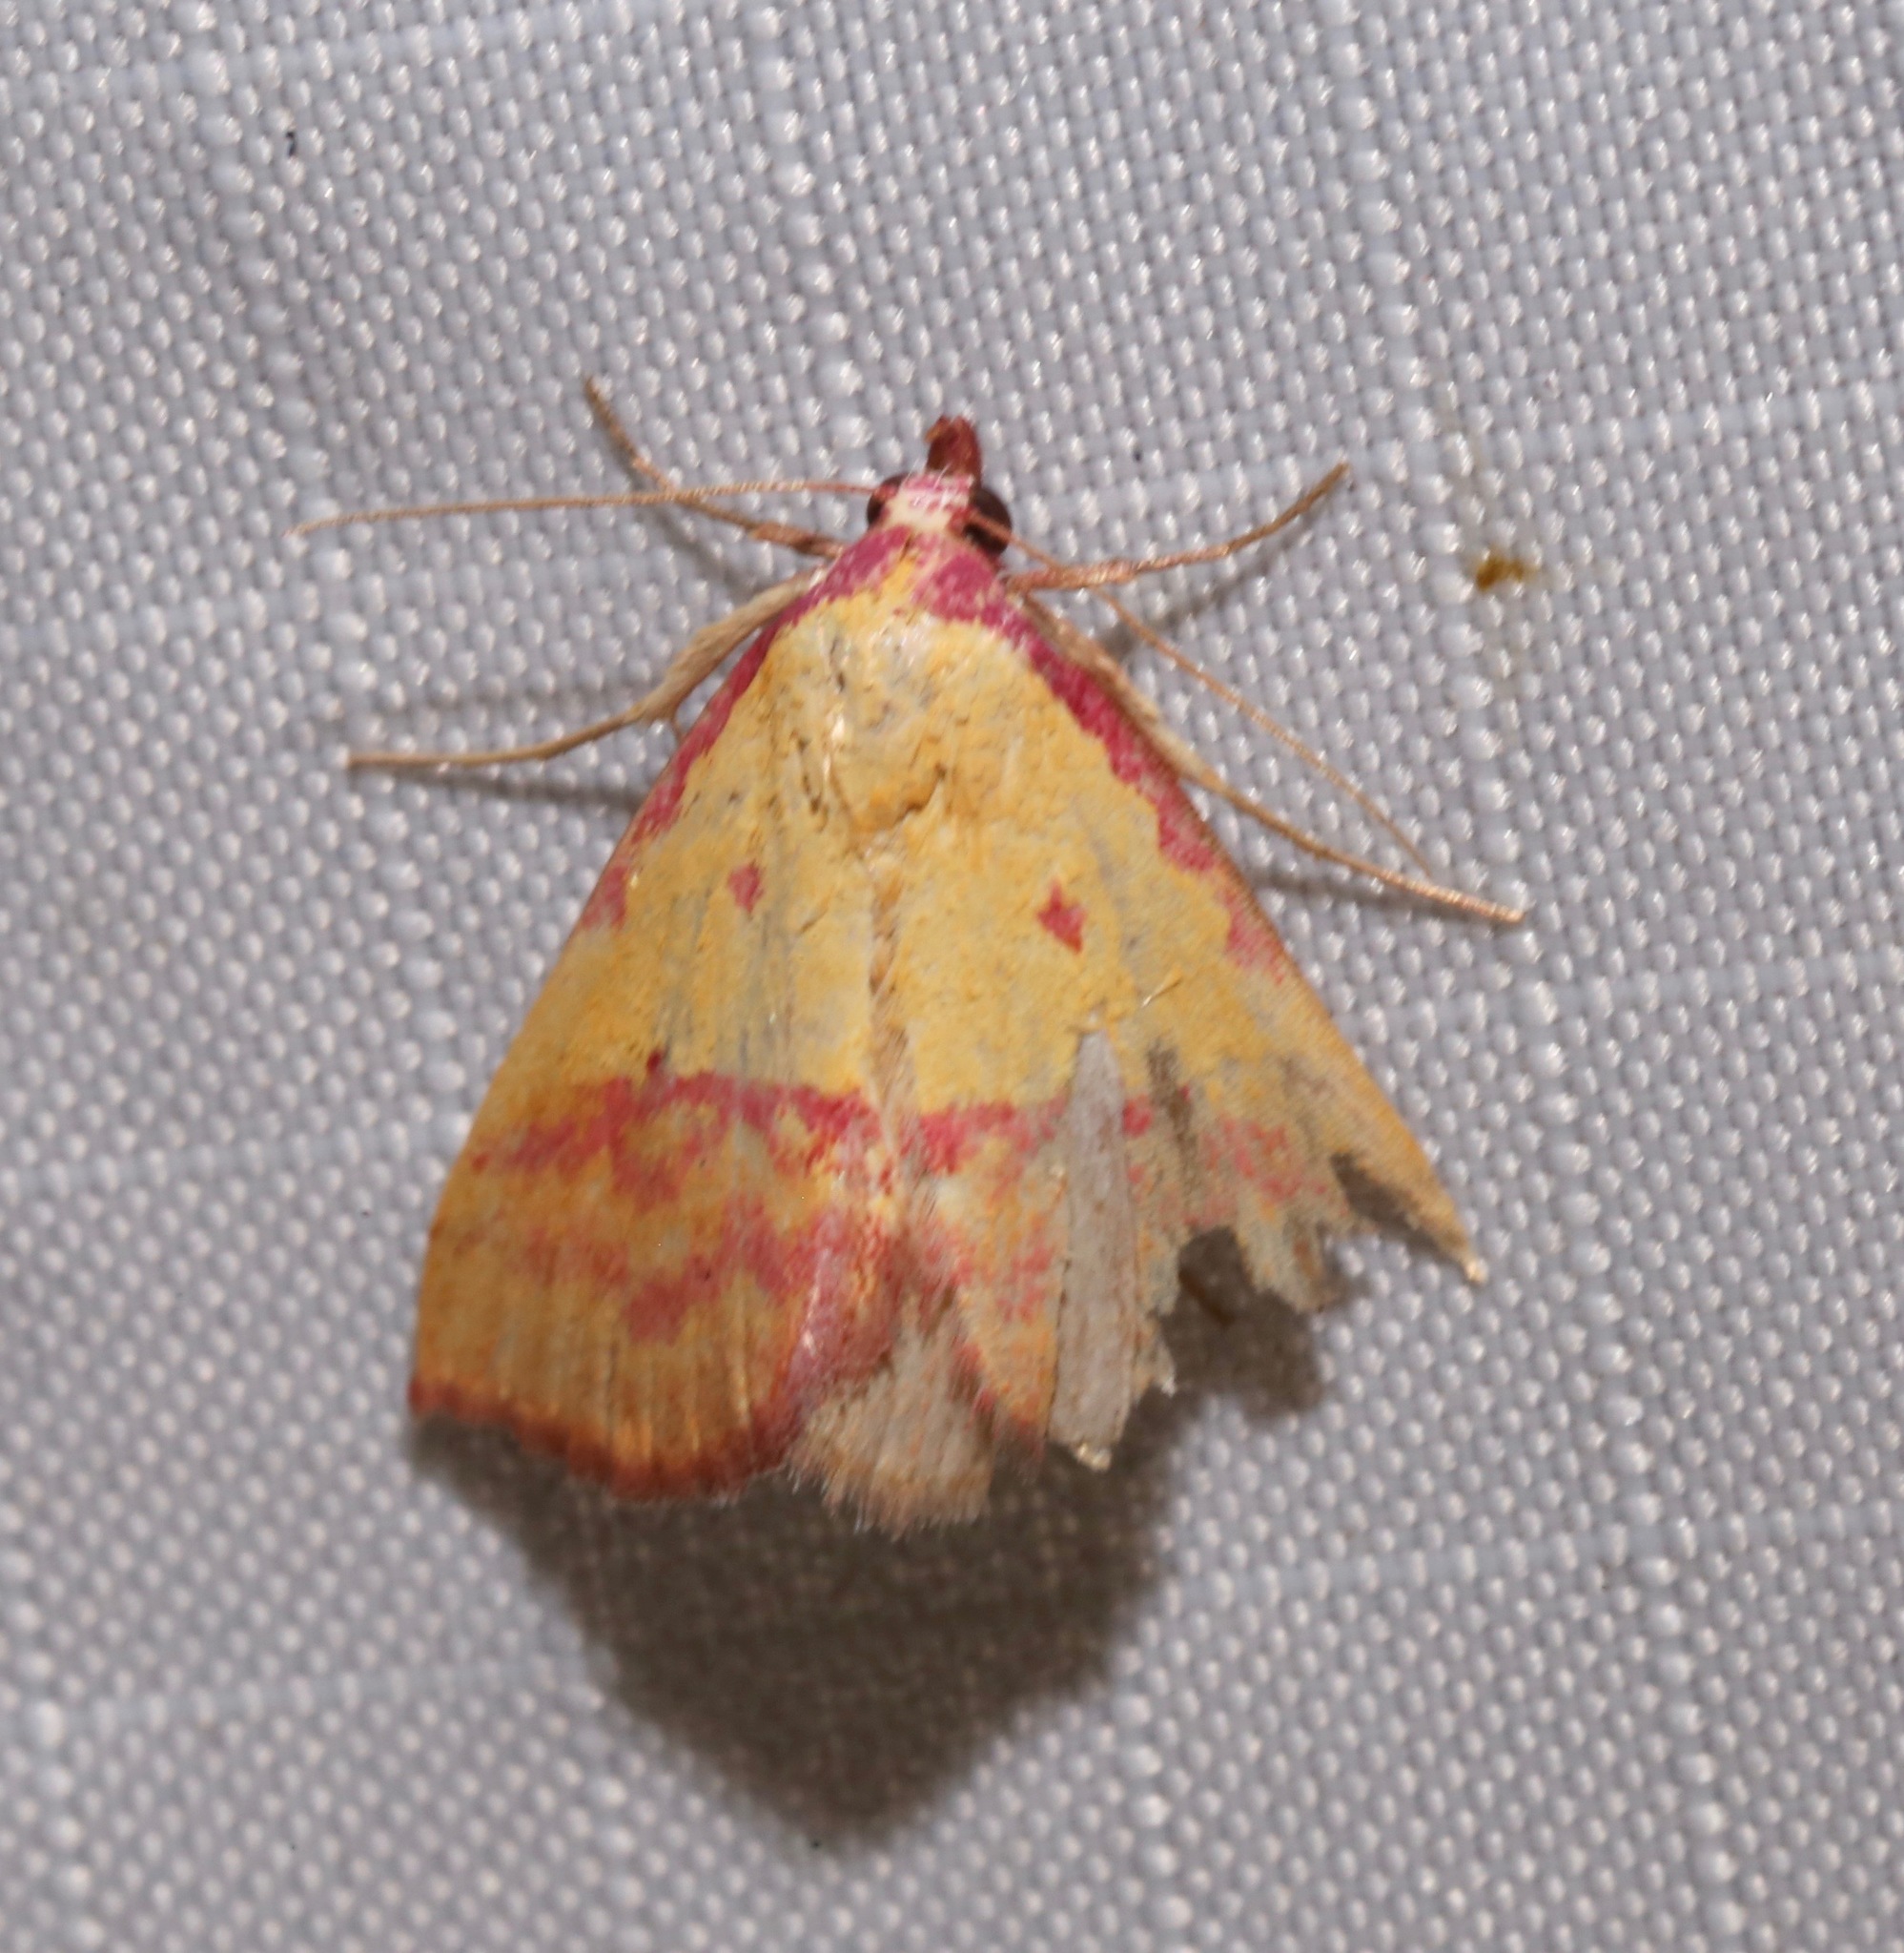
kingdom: Animalia
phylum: Arthropoda
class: Insecta
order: Lepidoptera
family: Erebidae
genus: Phytometra
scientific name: Phytometra rhodarialis
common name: Pink-bordered yellow
